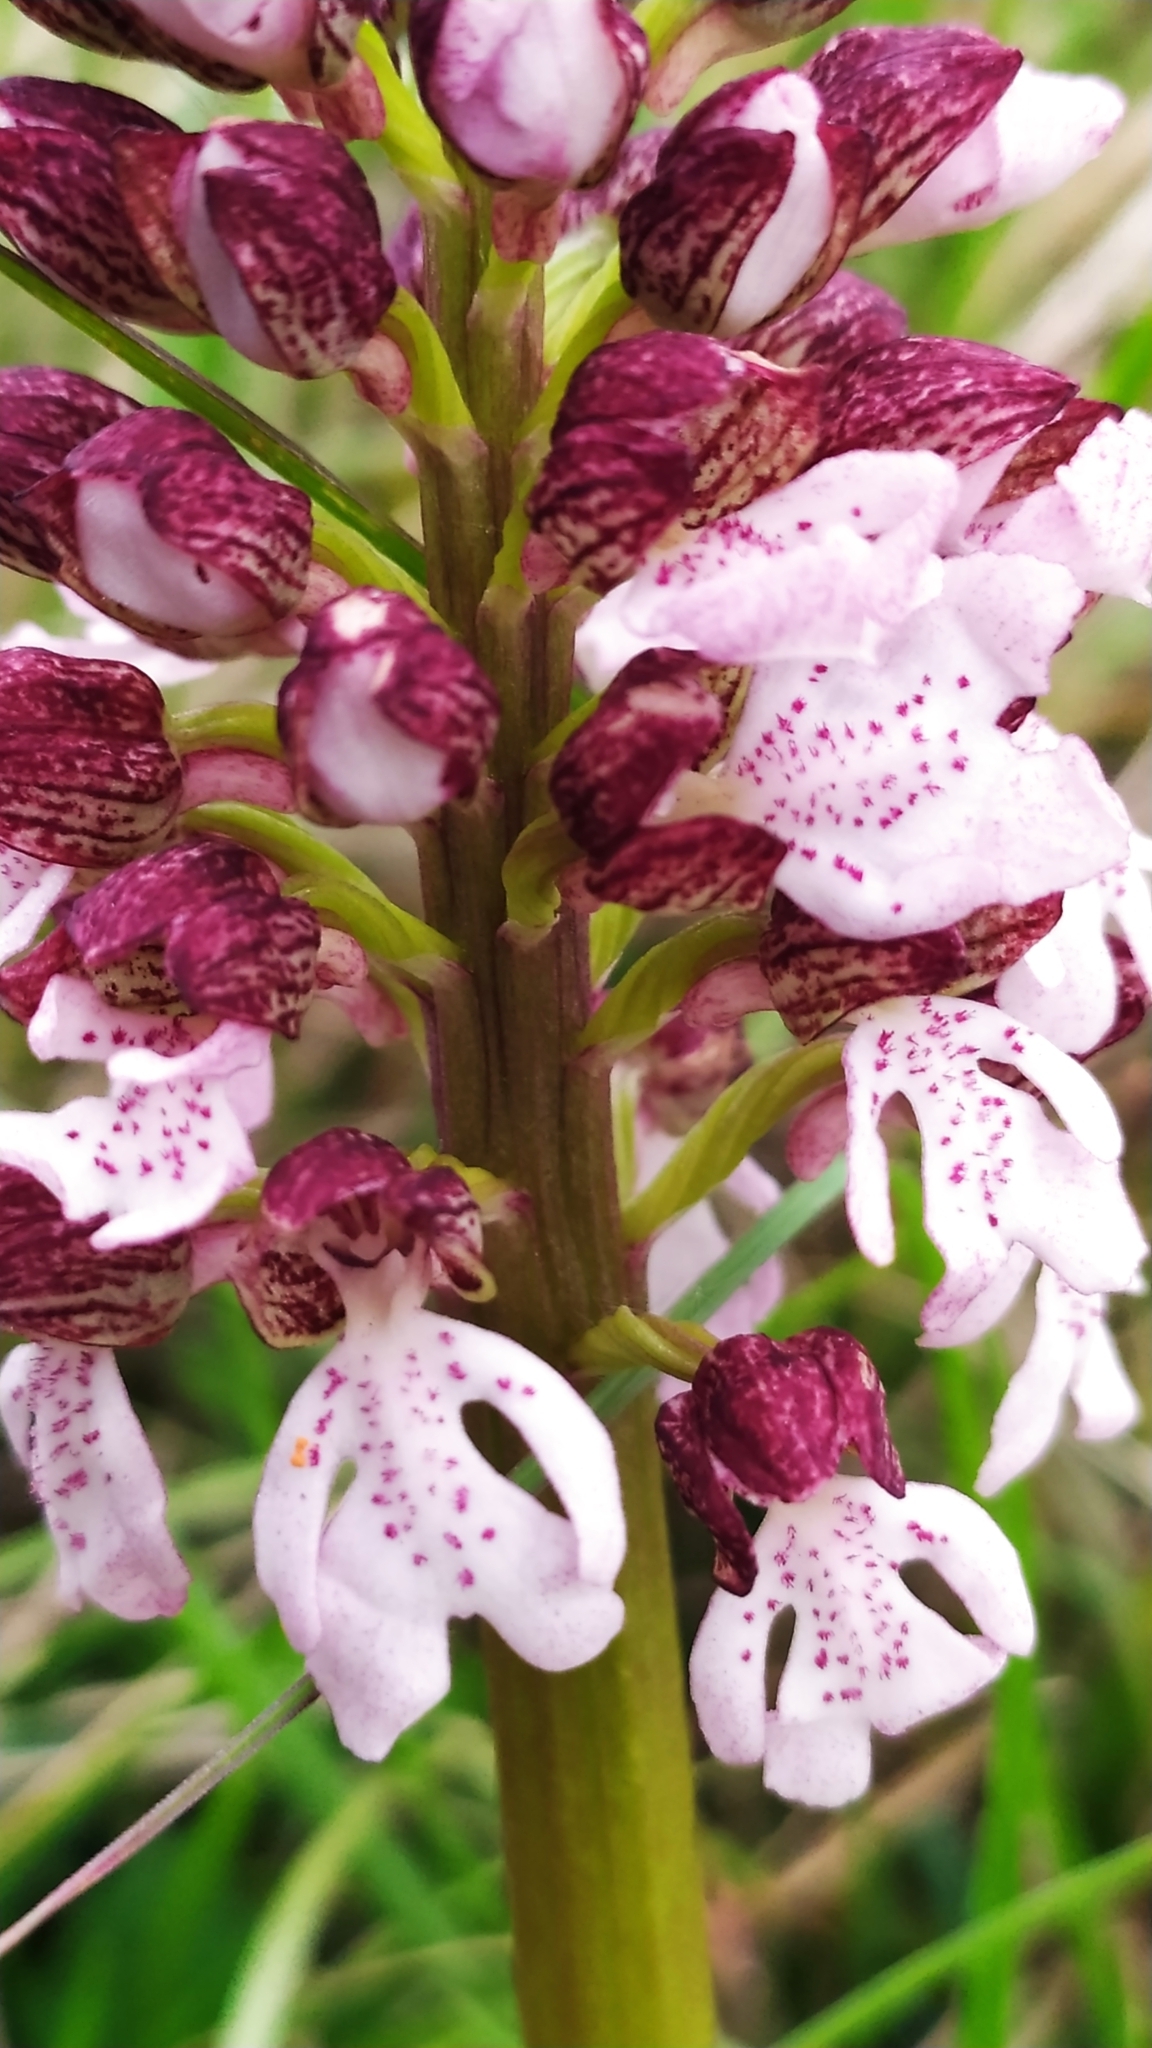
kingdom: Plantae
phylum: Tracheophyta
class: Liliopsida
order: Asparagales
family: Orchidaceae
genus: Orchis
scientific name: Orchis purpurea
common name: Lady orchid
